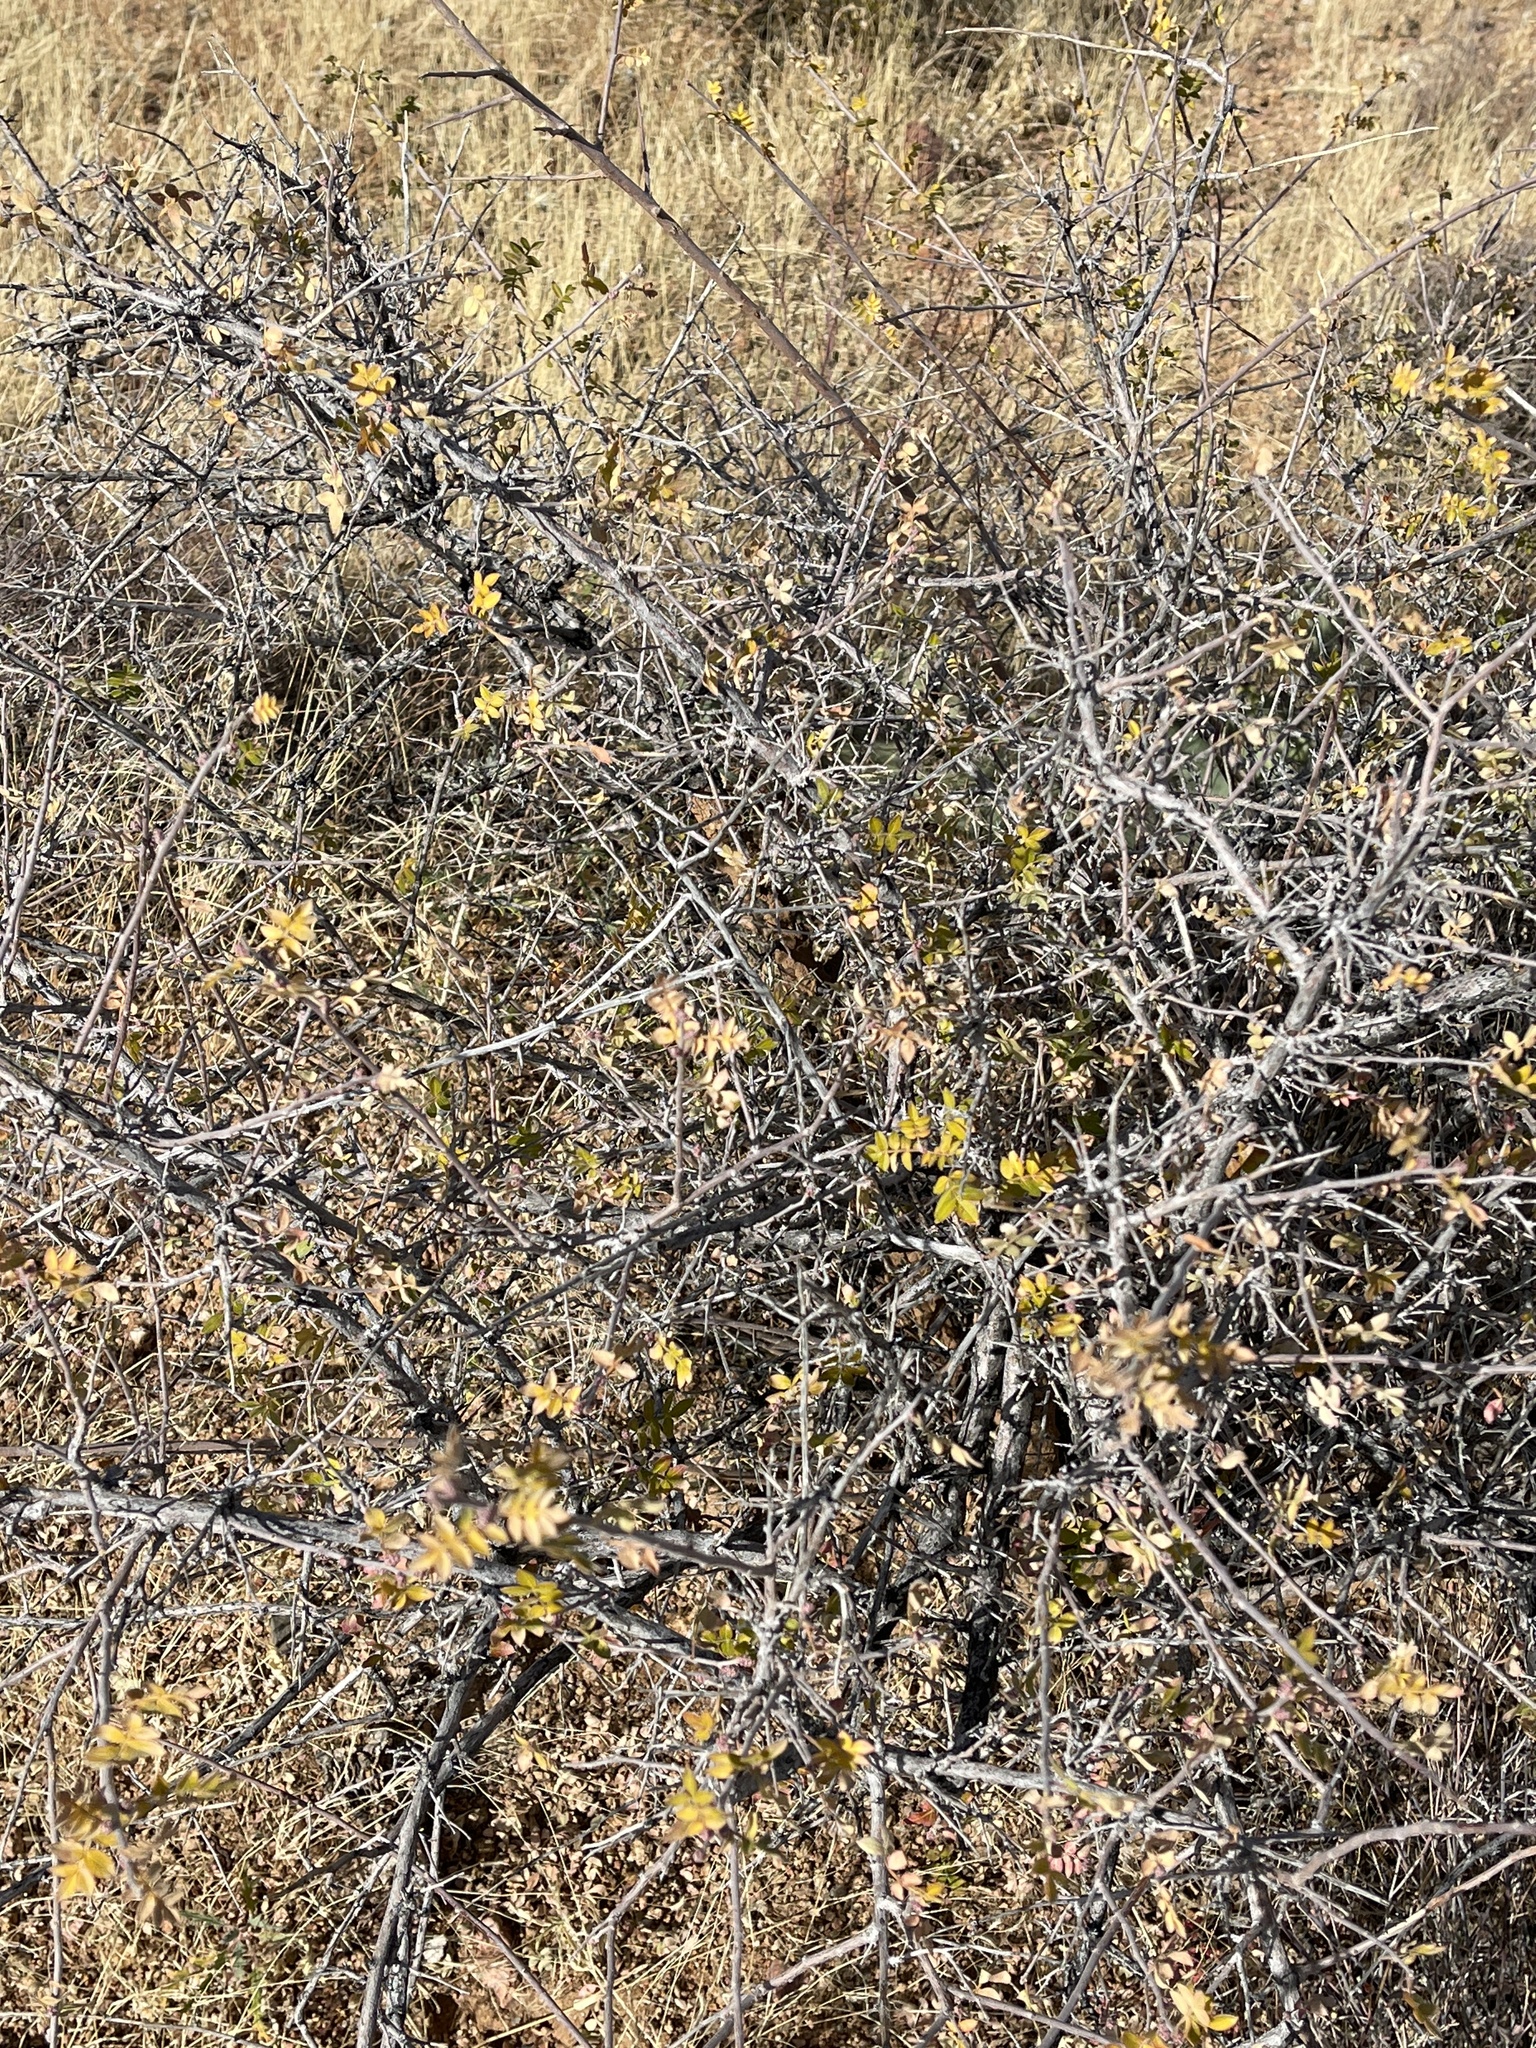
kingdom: Plantae
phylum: Tracheophyta
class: Magnoliopsida
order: Sapindales
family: Anacardiaceae
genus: Rhus
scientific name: Rhus microphylla
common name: Desert sumac
